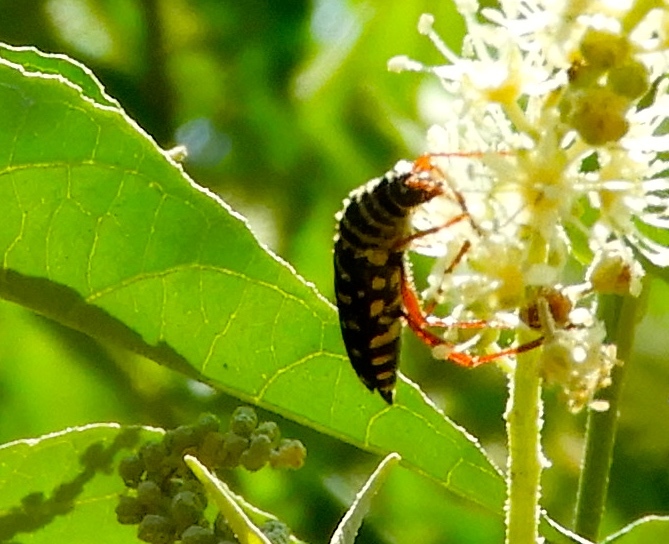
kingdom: Animalia
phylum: Arthropoda
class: Insecta
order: Coleoptera
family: Cerambycidae
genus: Placosternus
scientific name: Placosternus
